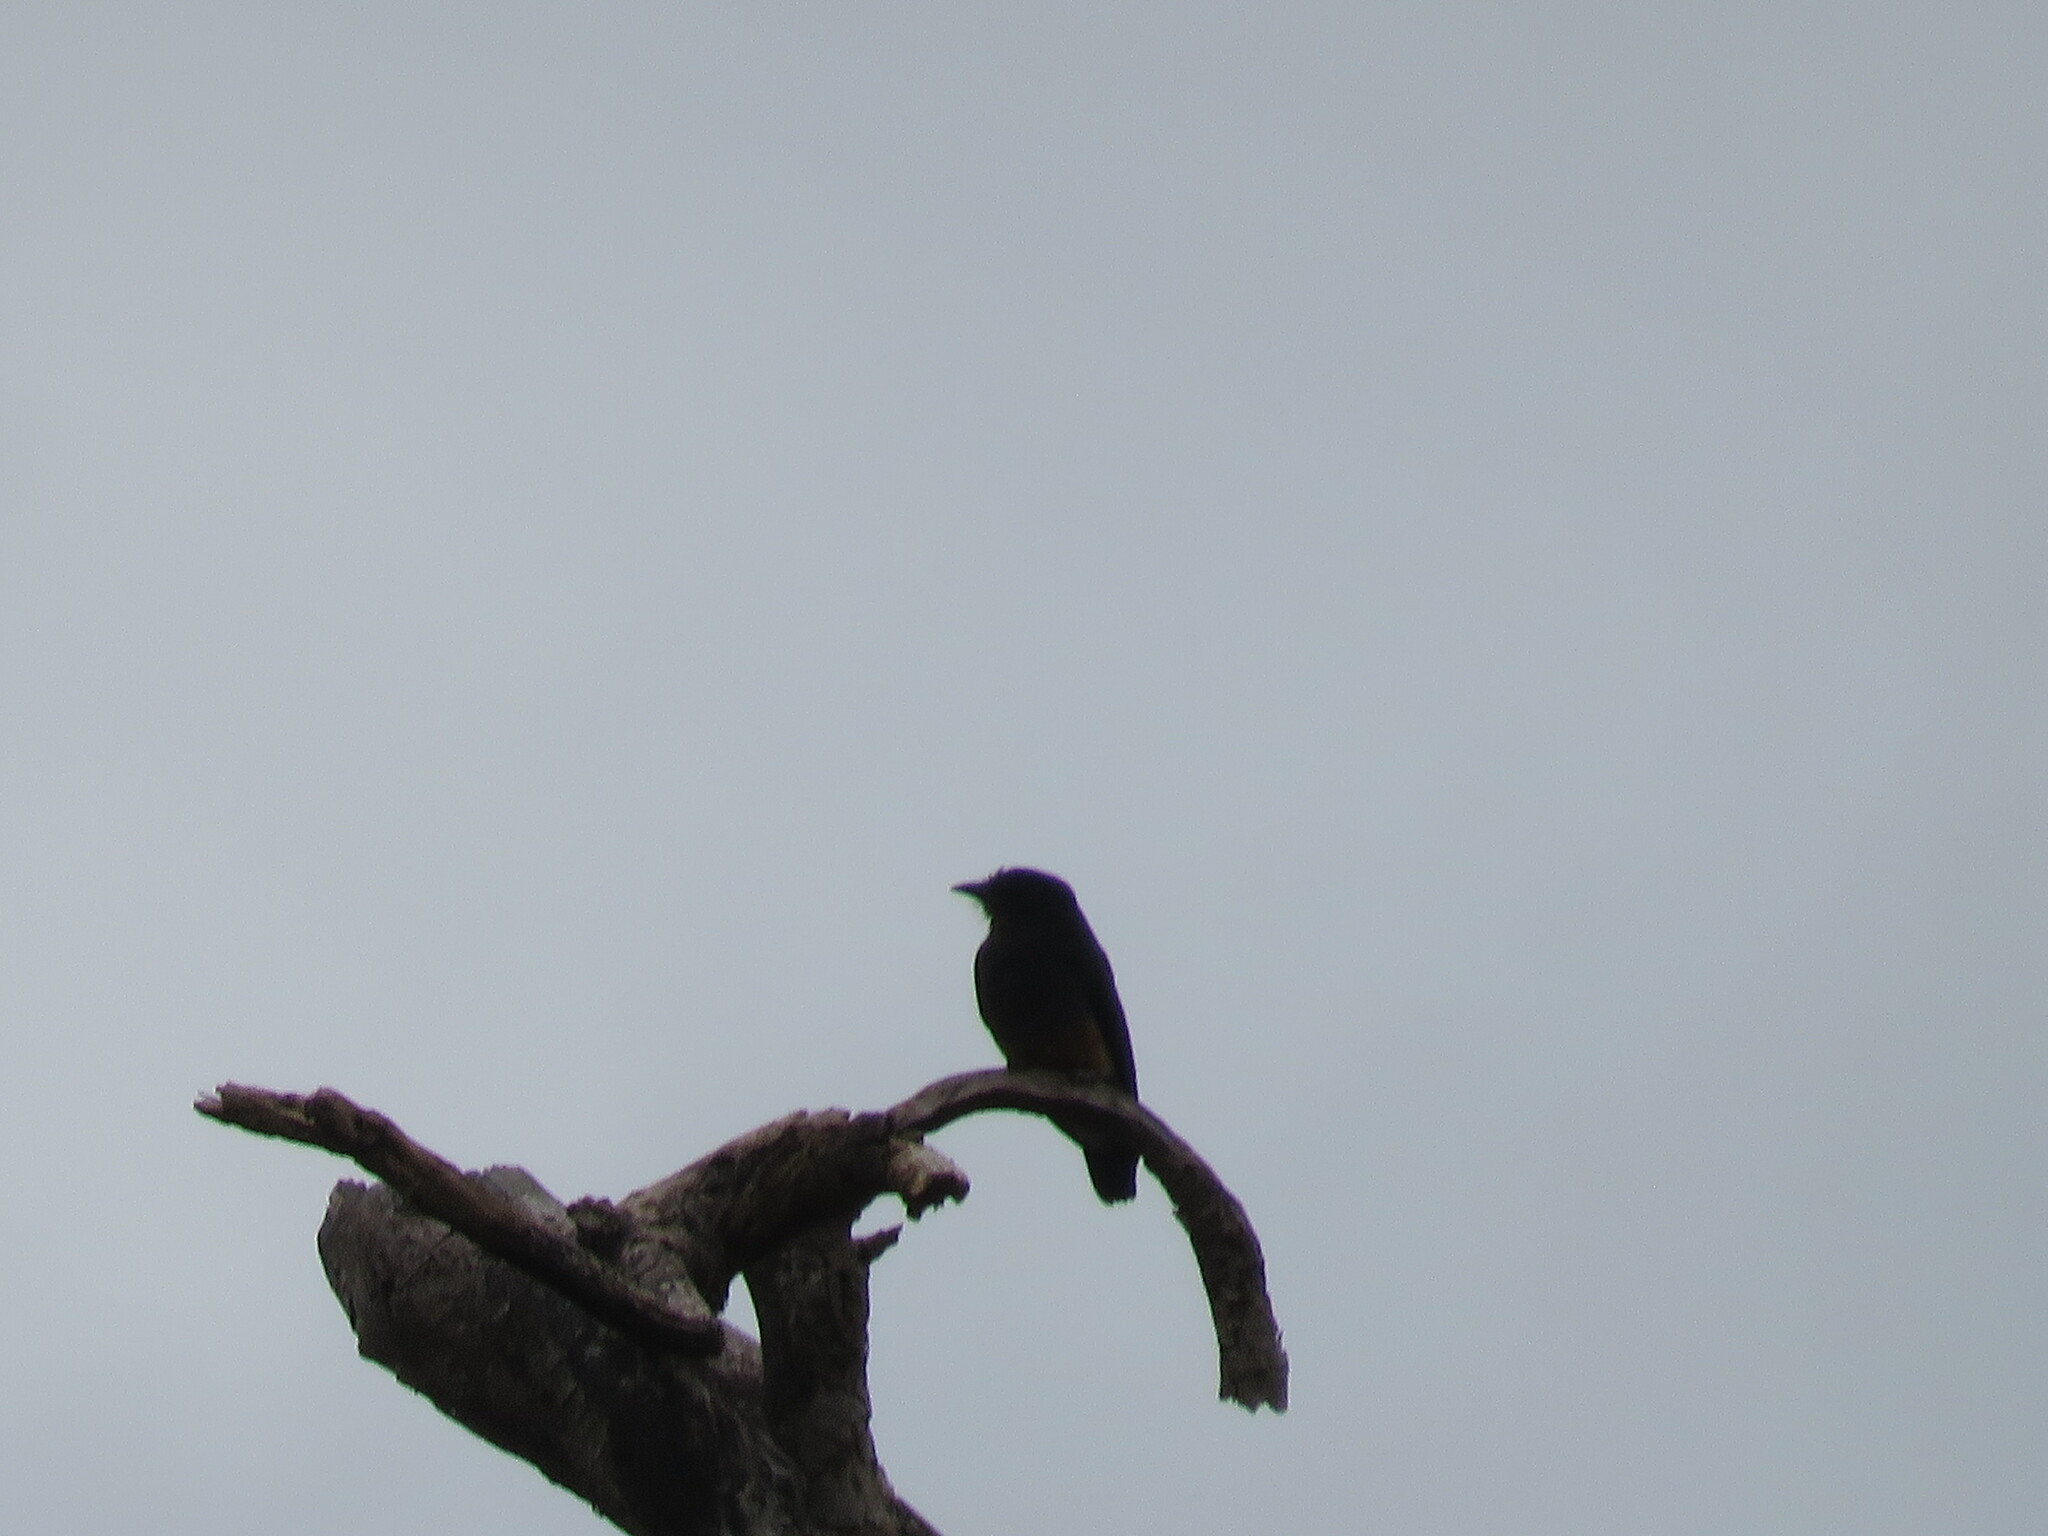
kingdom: Animalia
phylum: Chordata
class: Aves
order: Piciformes
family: Bucconidae
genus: Chelidoptera
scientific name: Chelidoptera tenebrosa
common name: Swallow-winged puffbird
